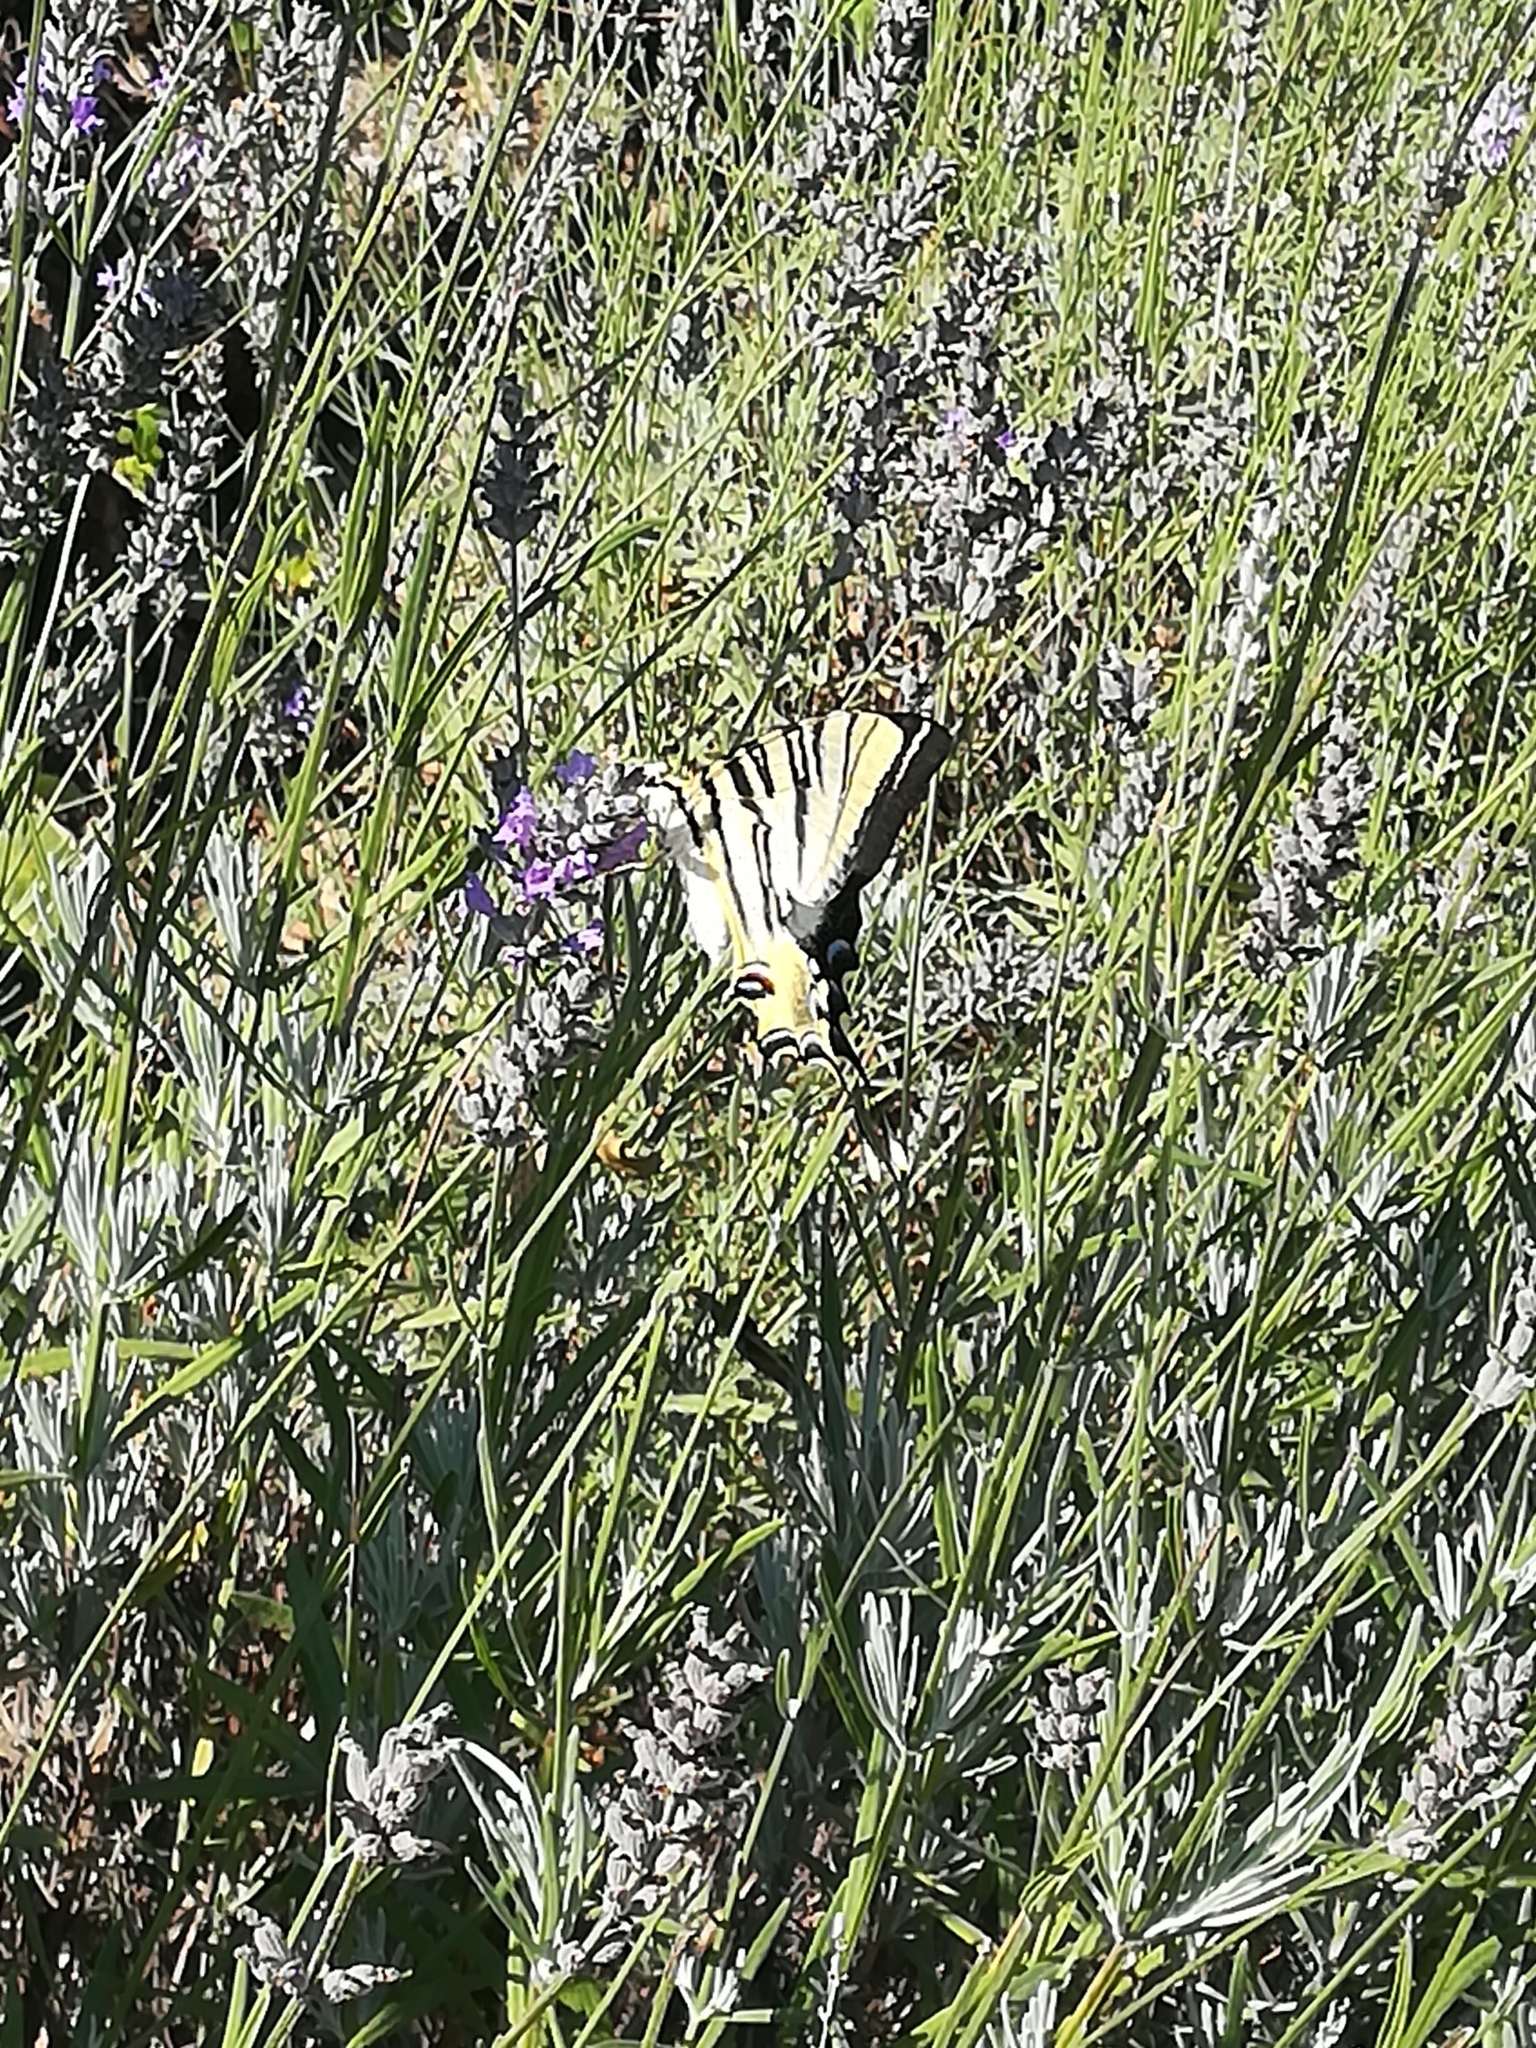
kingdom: Animalia
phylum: Arthropoda
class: Insecta
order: Lepidoptera
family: Papilionidae
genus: Iphiclides
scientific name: Iphiclides feisthamelii
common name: Iberian scarce swallowtail
